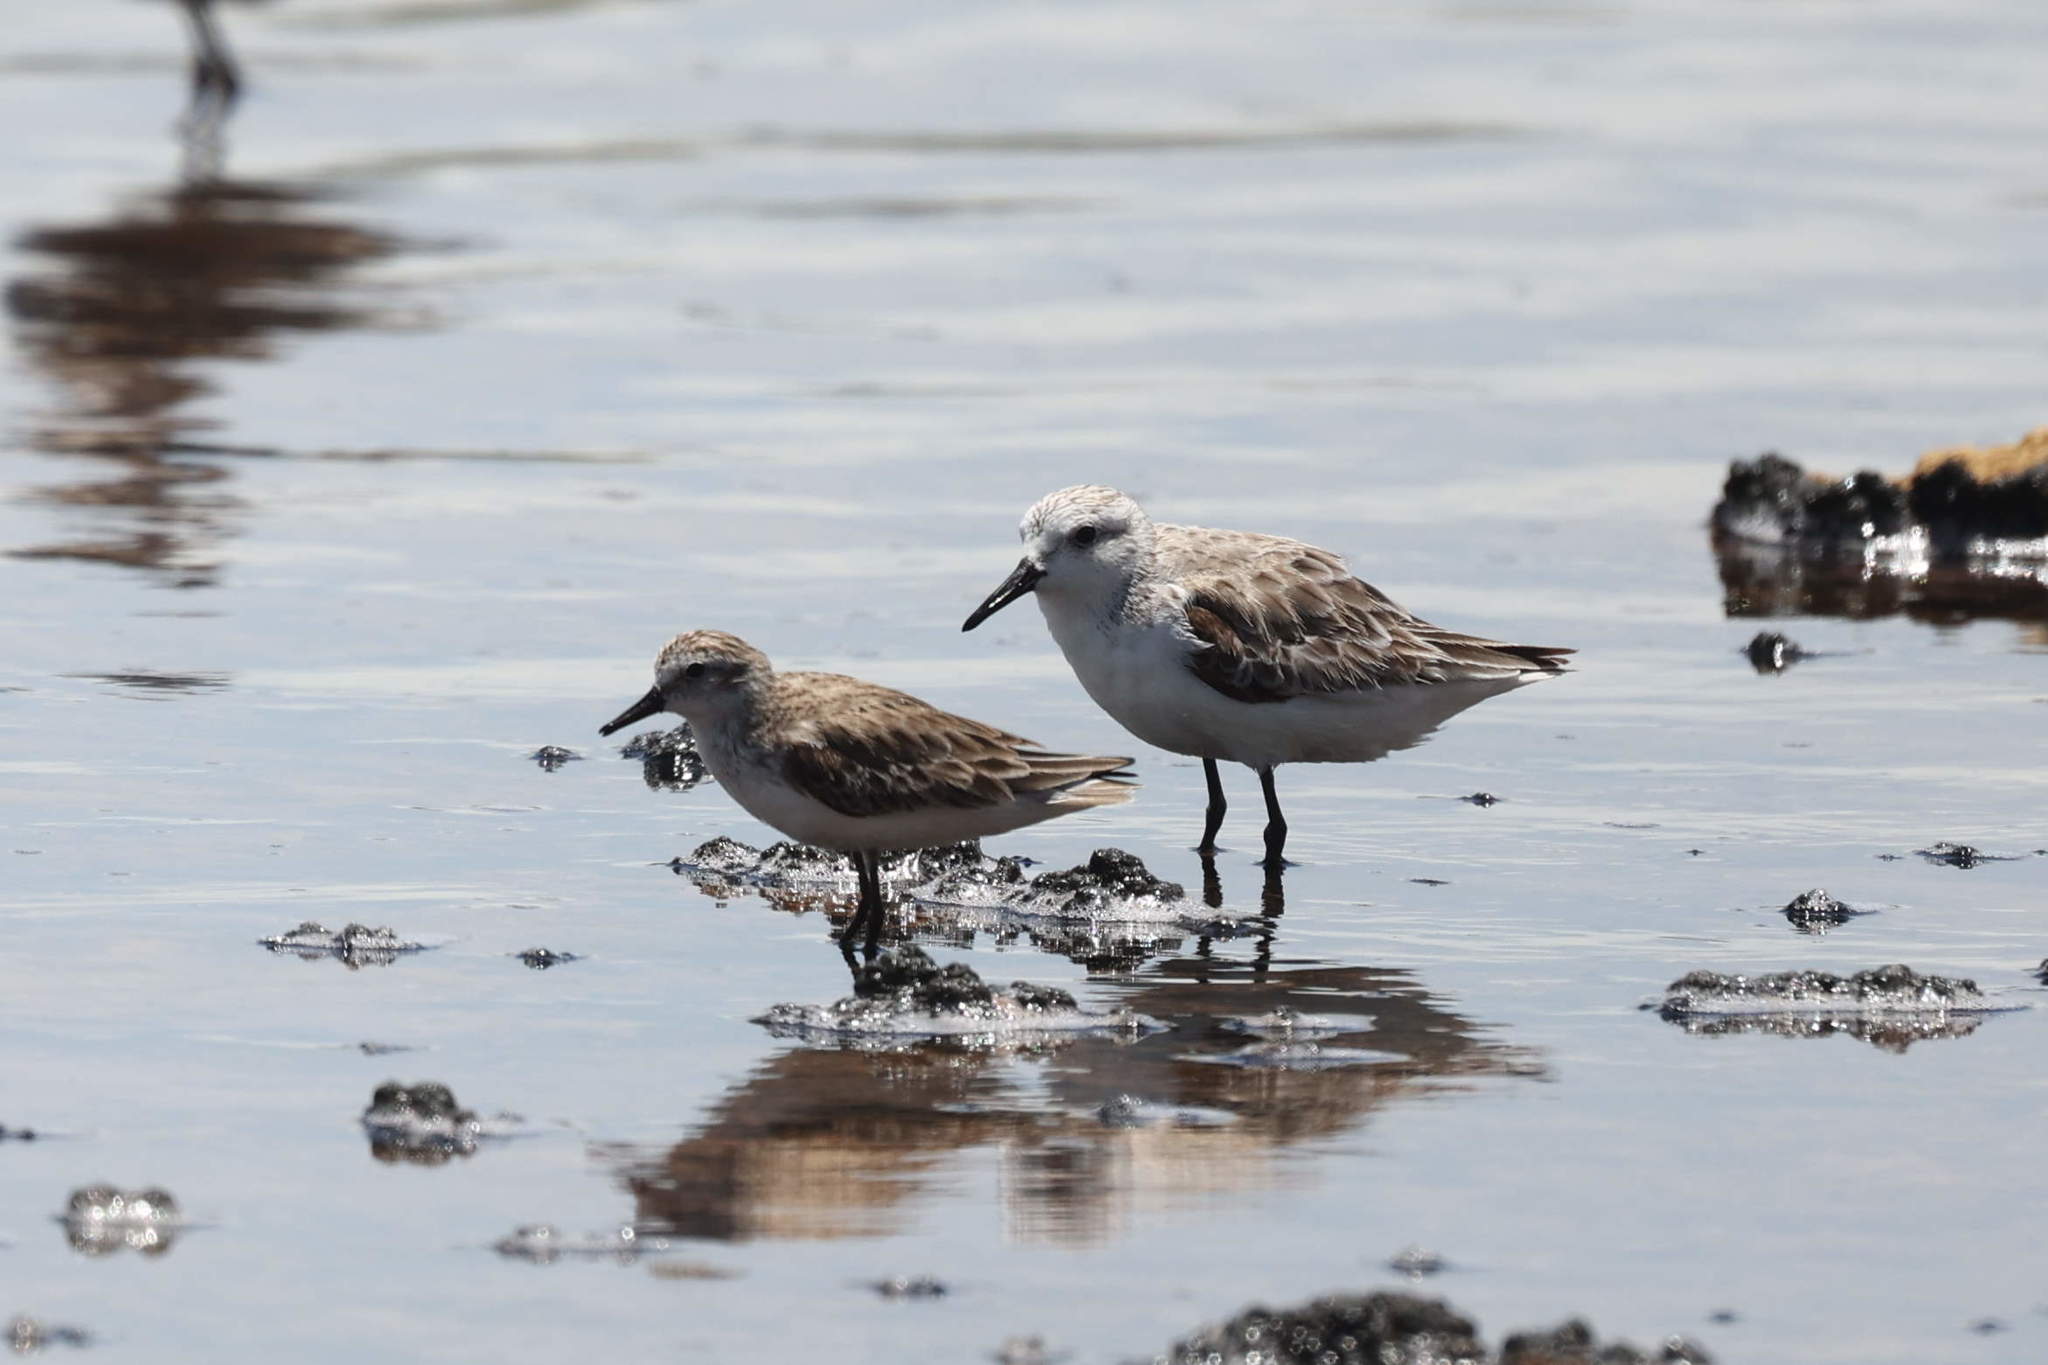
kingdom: Animalia
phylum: Chordata
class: Aves
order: Charadriiformes
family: Scolopacidae
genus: Calidris
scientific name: Calidris pusilla
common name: Semipalmated sandpiper
